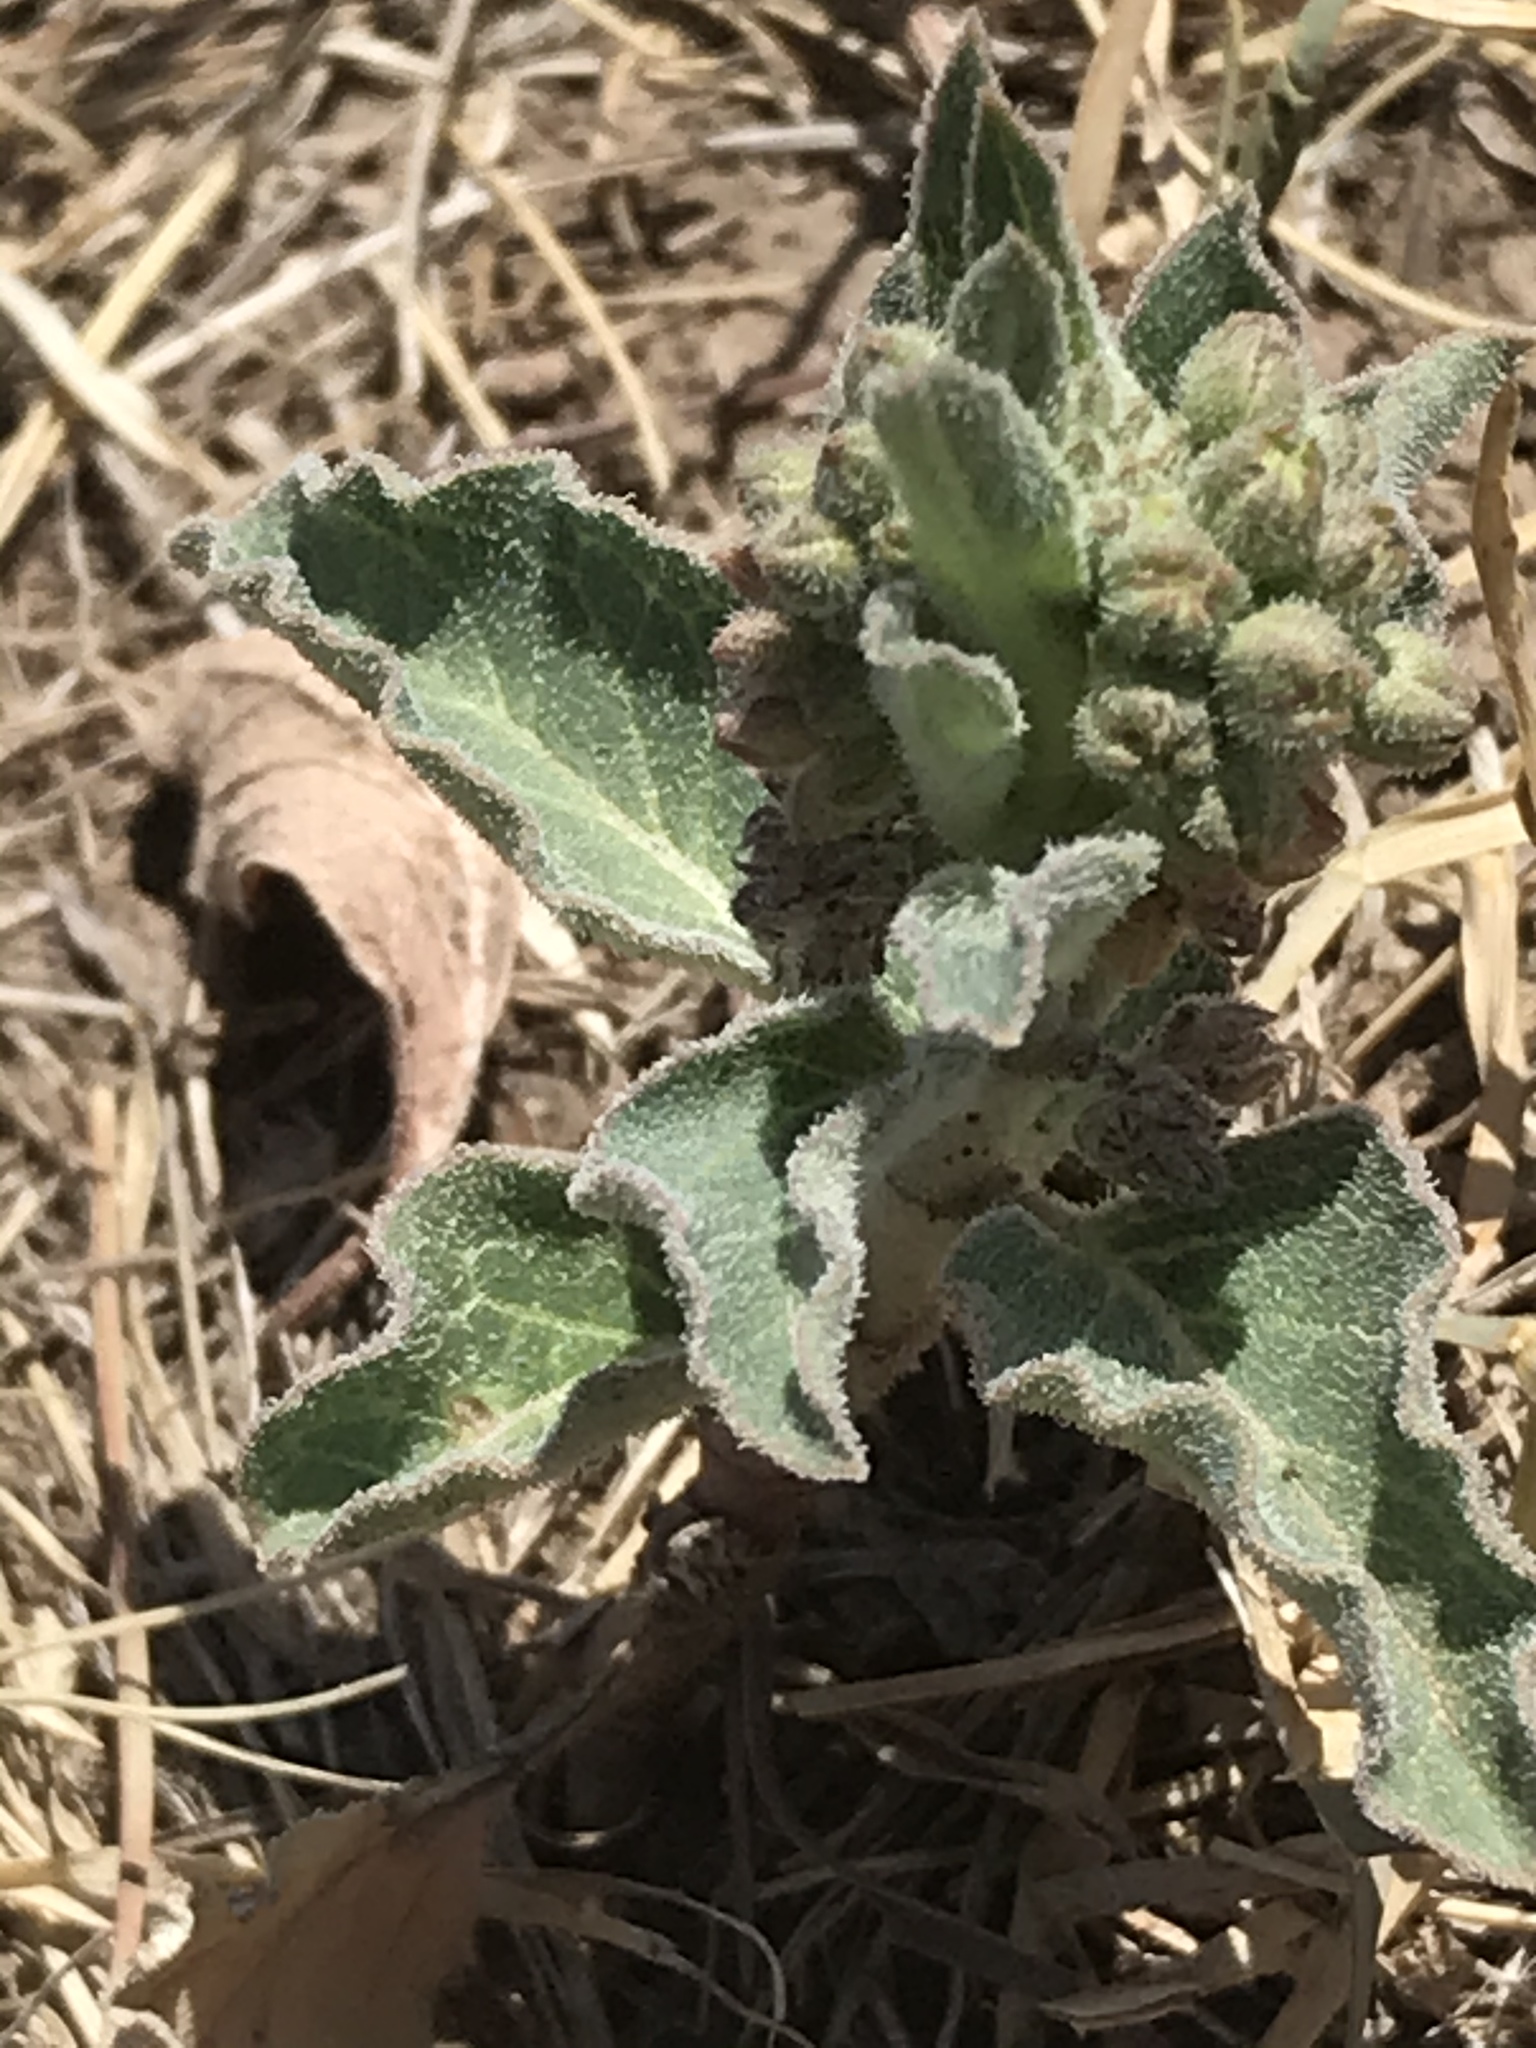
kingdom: Plantae
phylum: Tracheophyta
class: Magnoliopsida
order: Gentianales
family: Apocynaceae
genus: Asclepias
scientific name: Asclepias oenotheroides
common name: Zizotes milkweed
